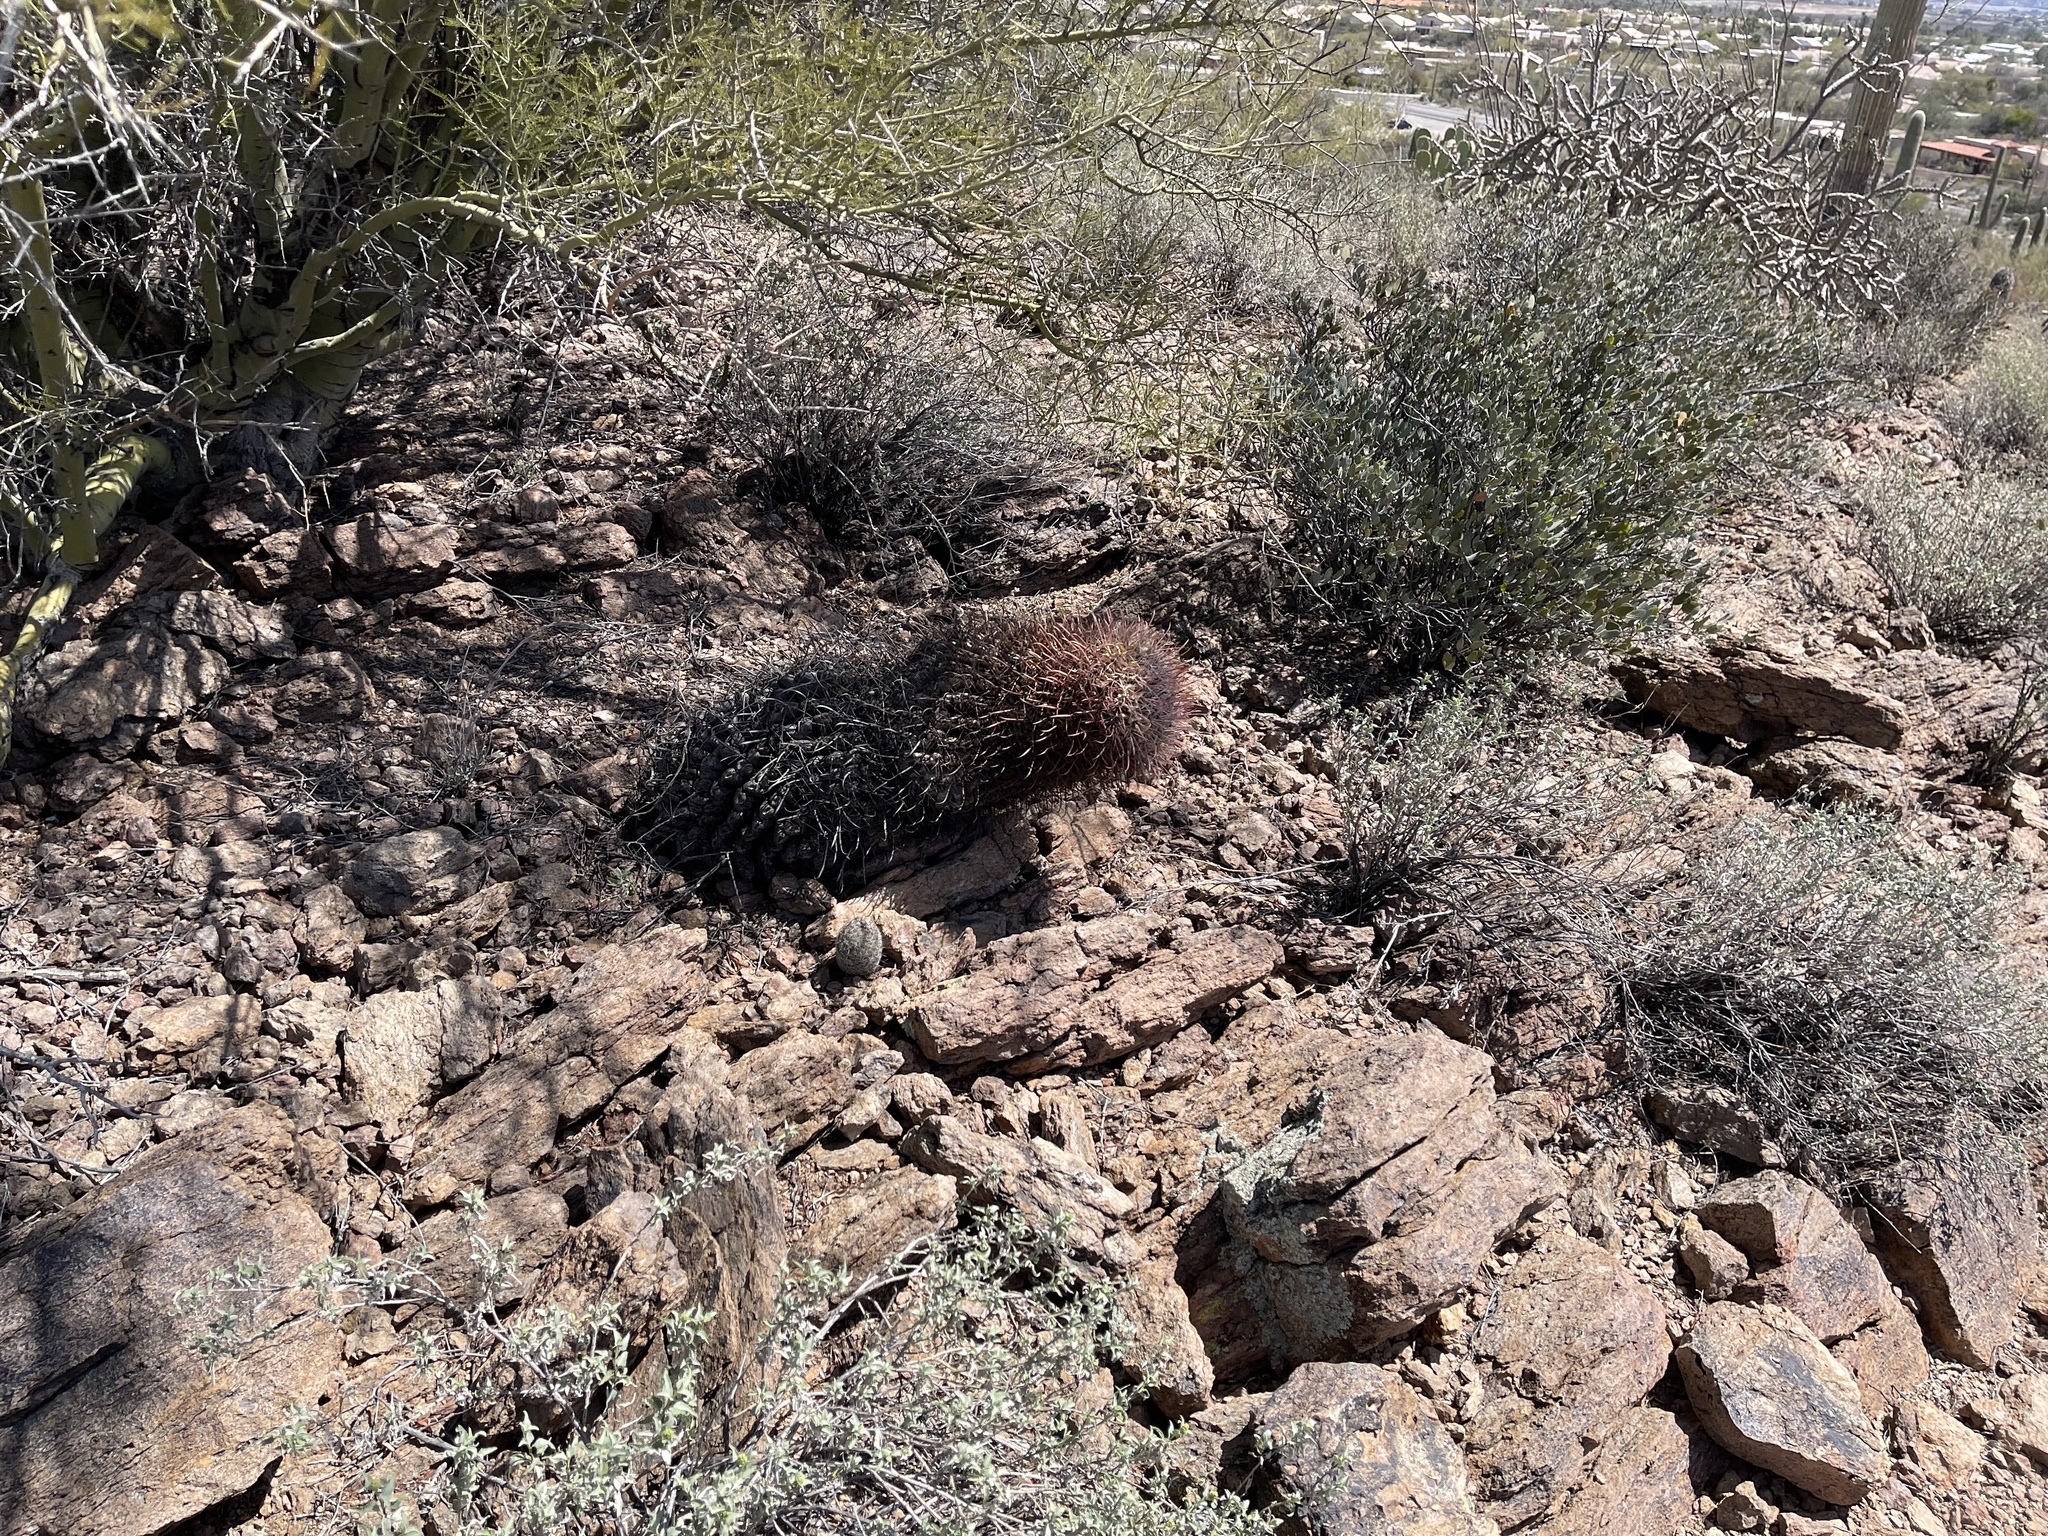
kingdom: Plantae
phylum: Tracheophyta
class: Magnoliopsida
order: Caryophyllales
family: Cactaceae
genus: Ferocactus
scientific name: Ferocactus wislizeni
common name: Candy barrel cactus
